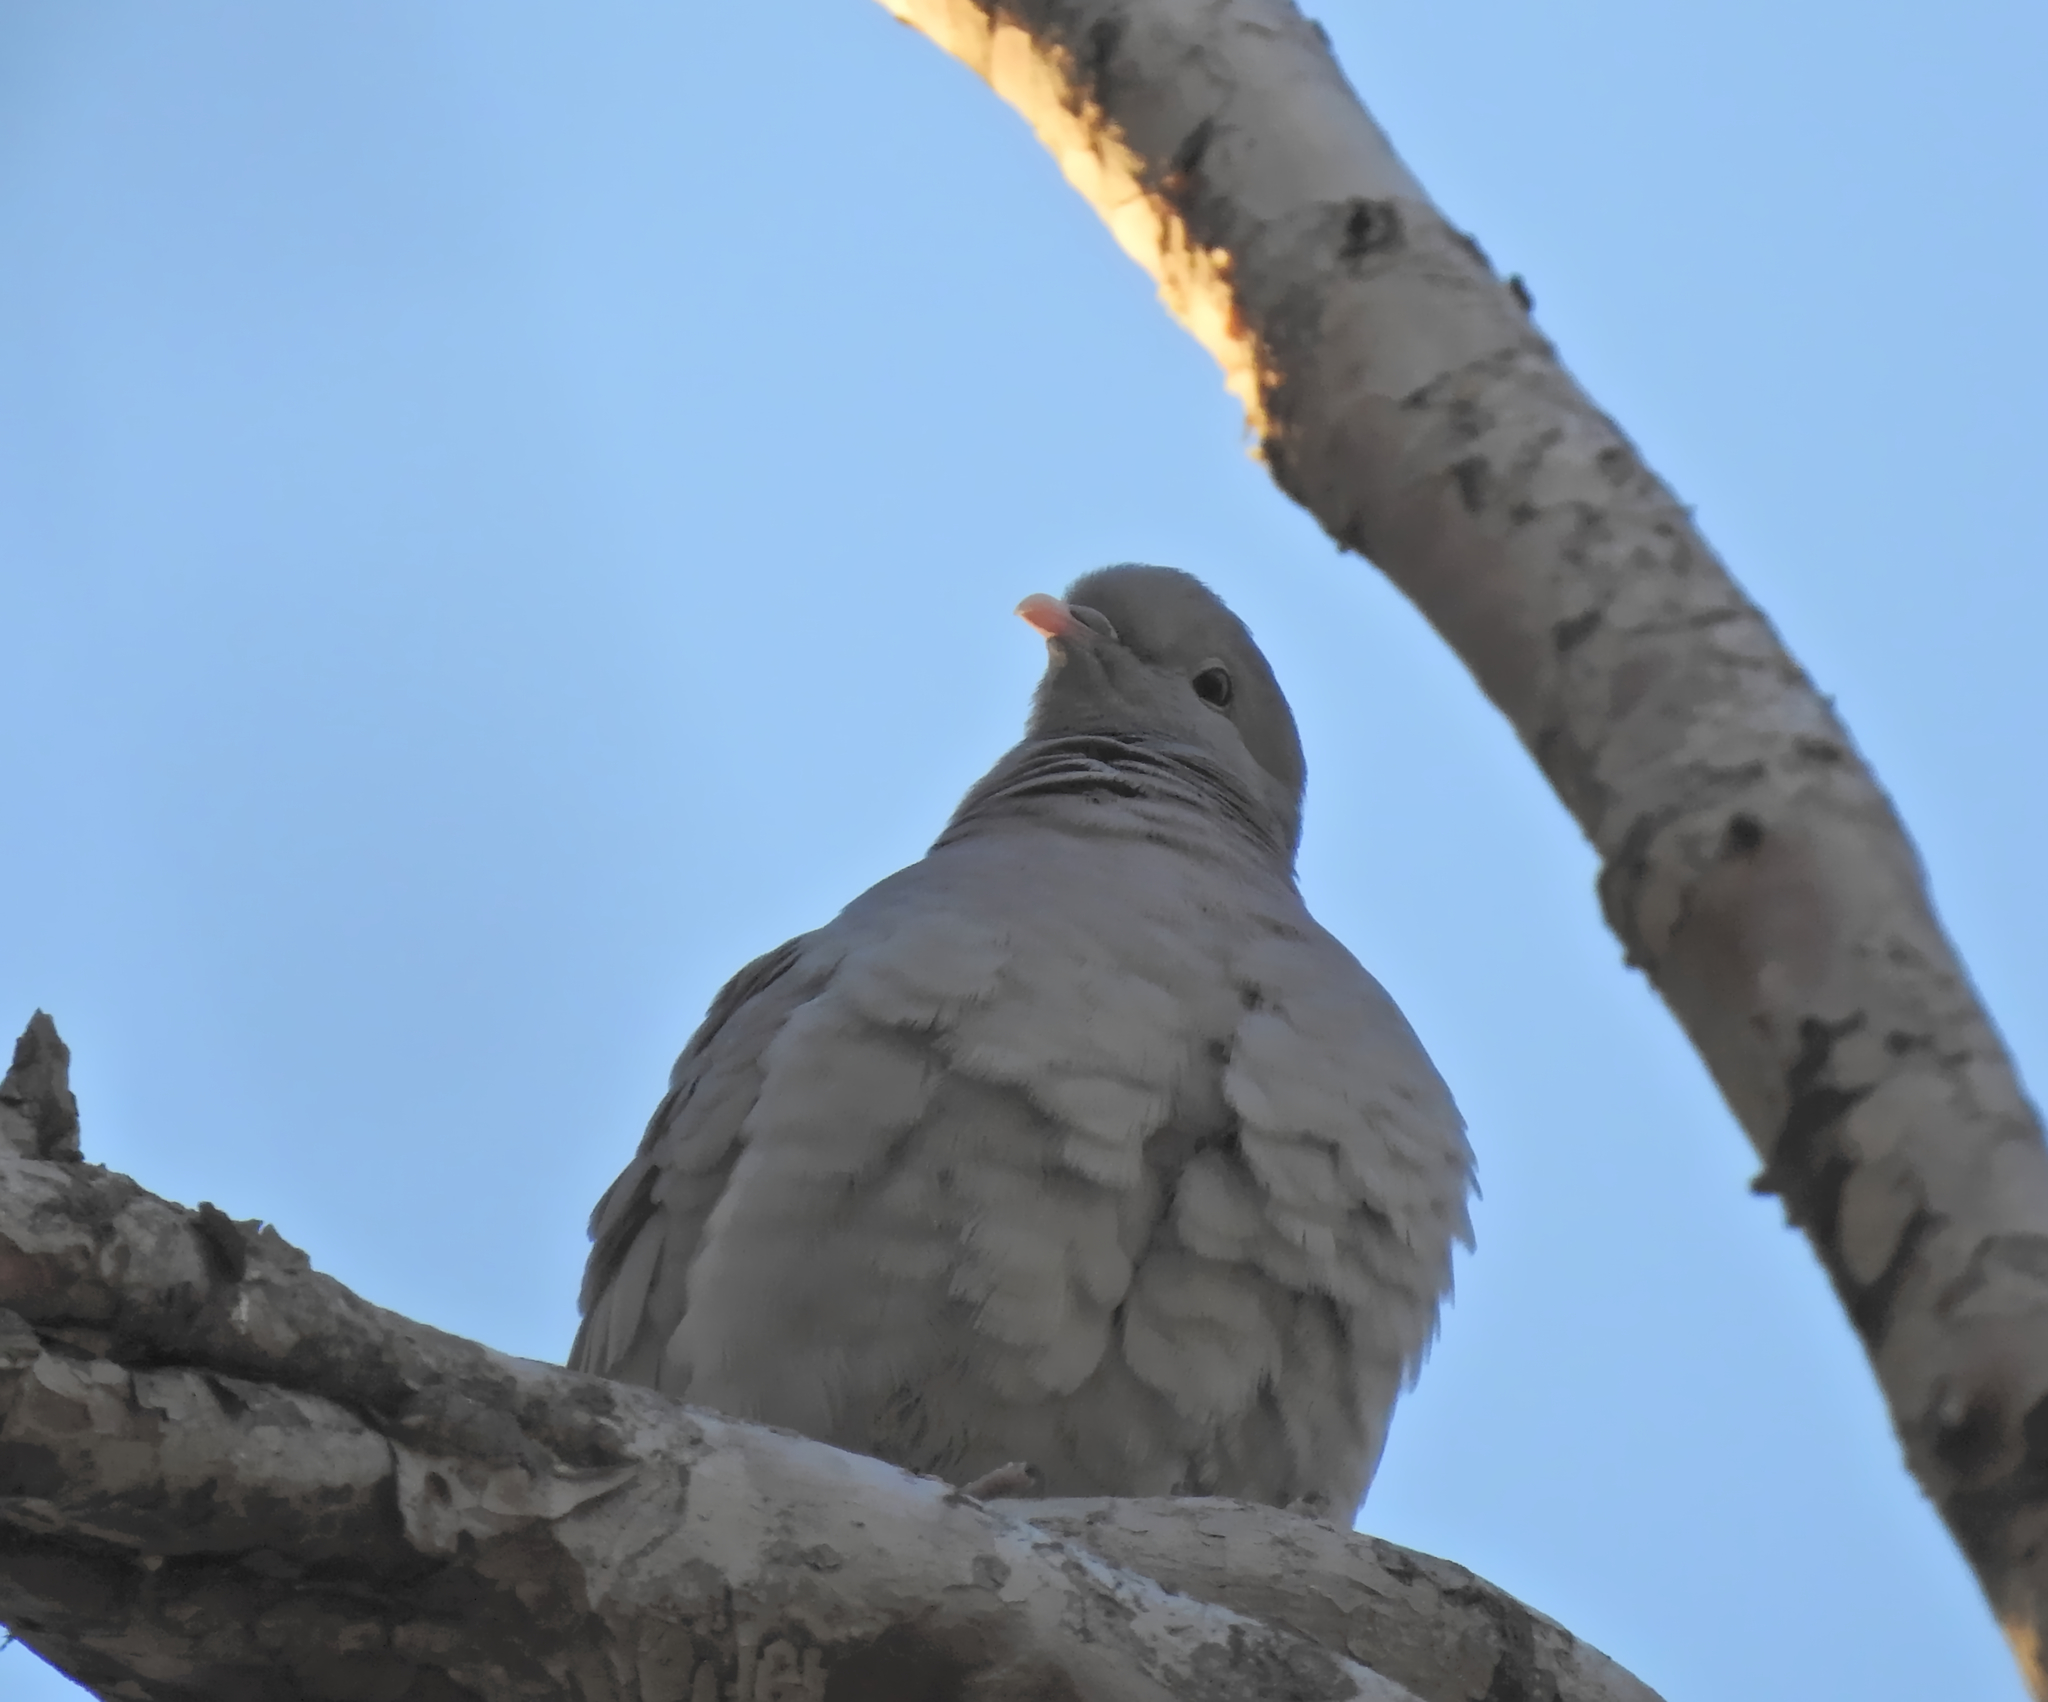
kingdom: Animalia
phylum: Chordata
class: Aves
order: Columbiformes
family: Columbidae
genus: Columba
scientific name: Columba oenas
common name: Stock dove
